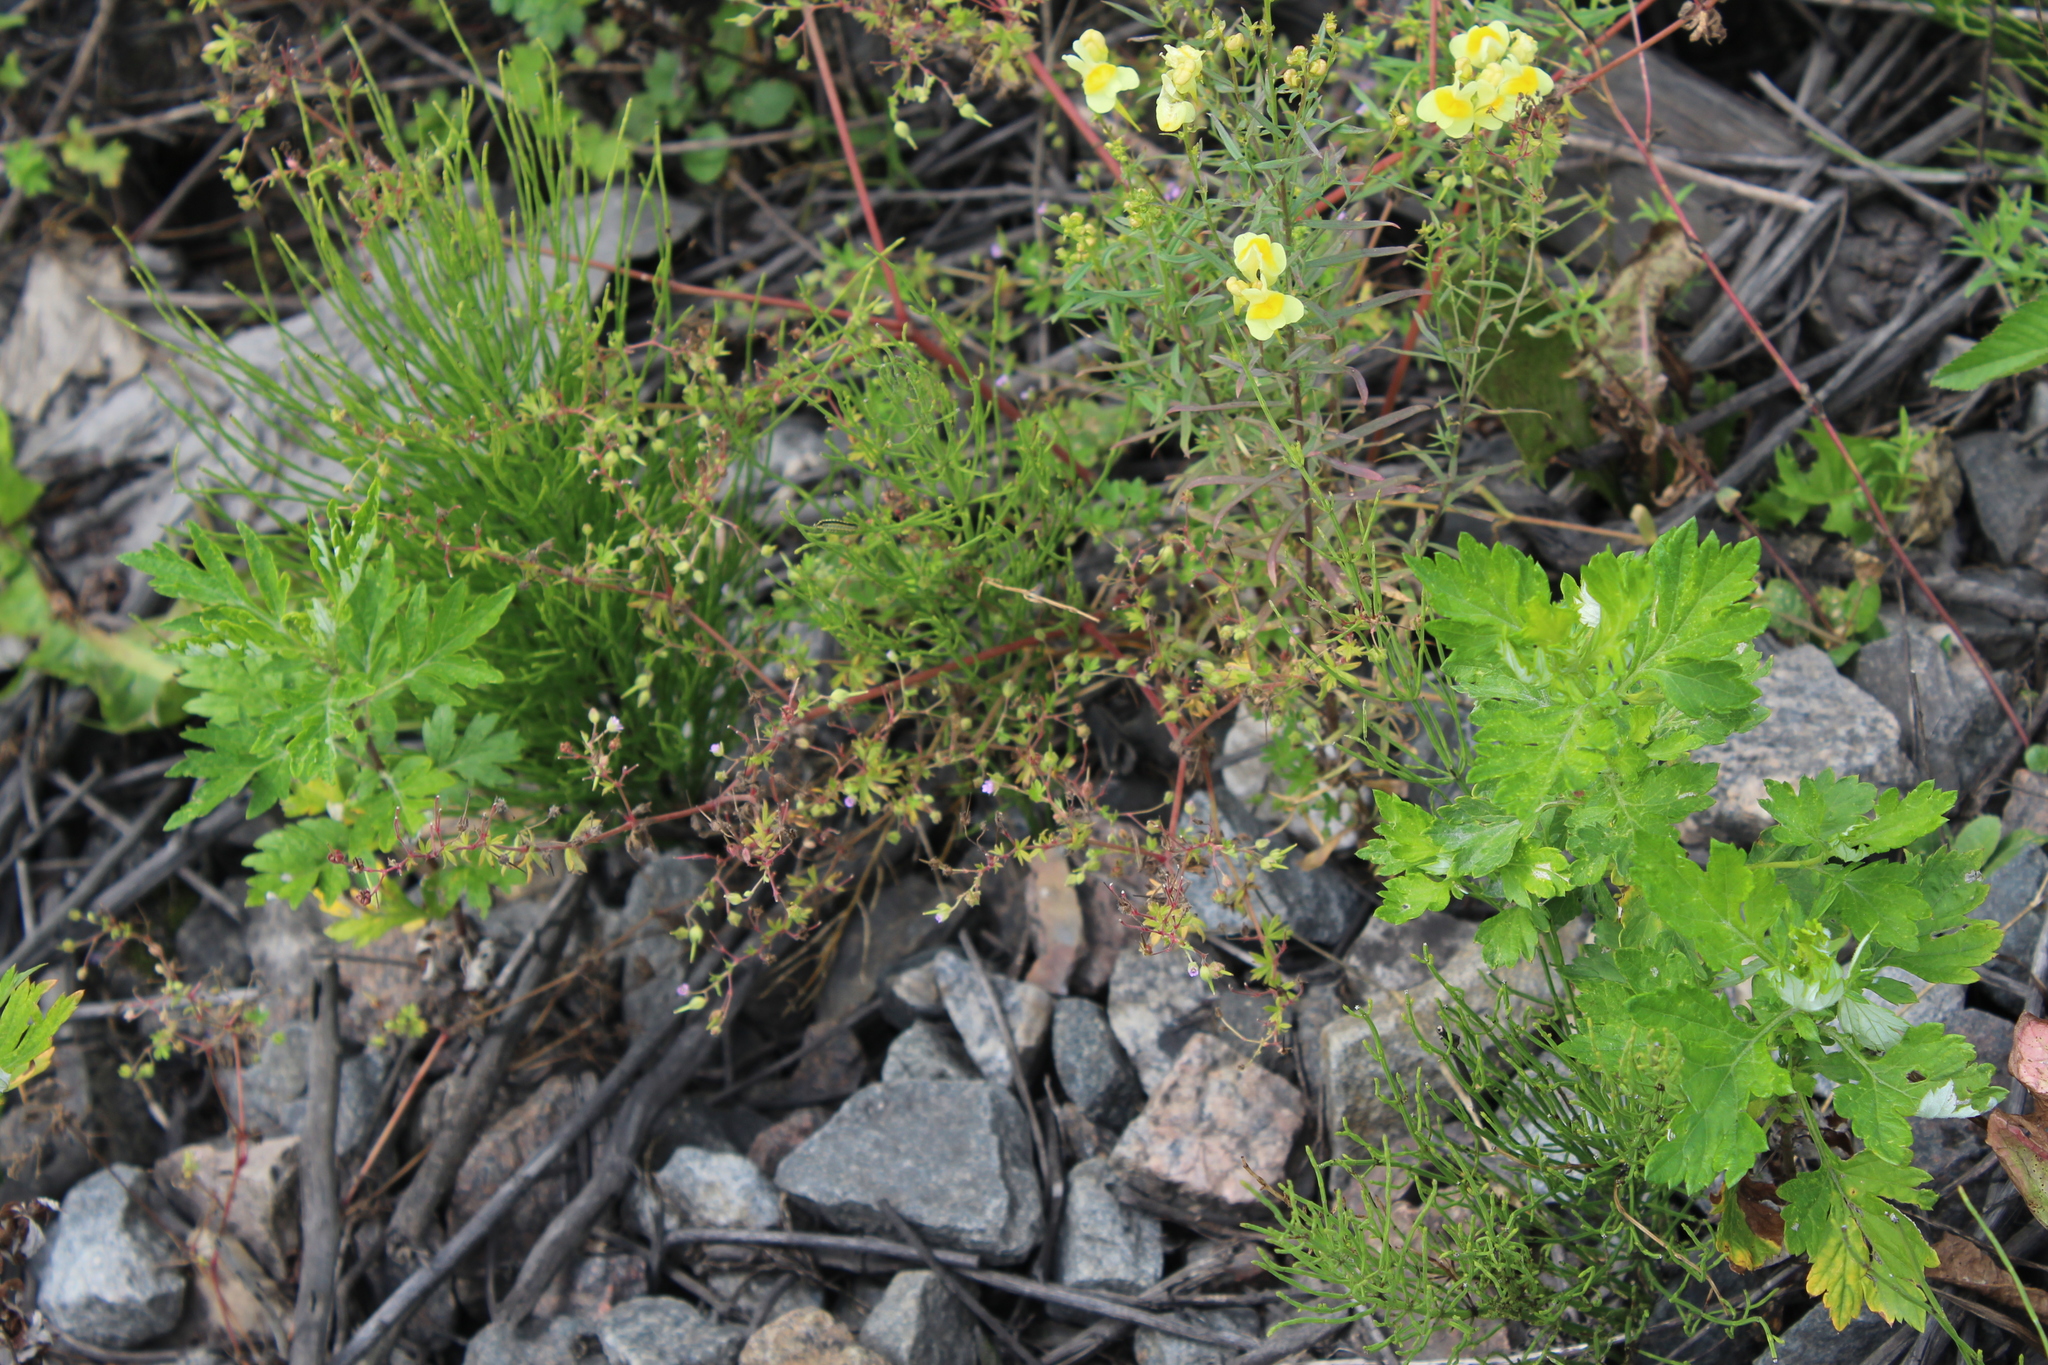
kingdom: Plantae
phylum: Tracheophyta
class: Magnoliopsida
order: Geraniales
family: Geraniaceae
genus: Geranium
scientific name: Geranium pusillum
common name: Small geranium
